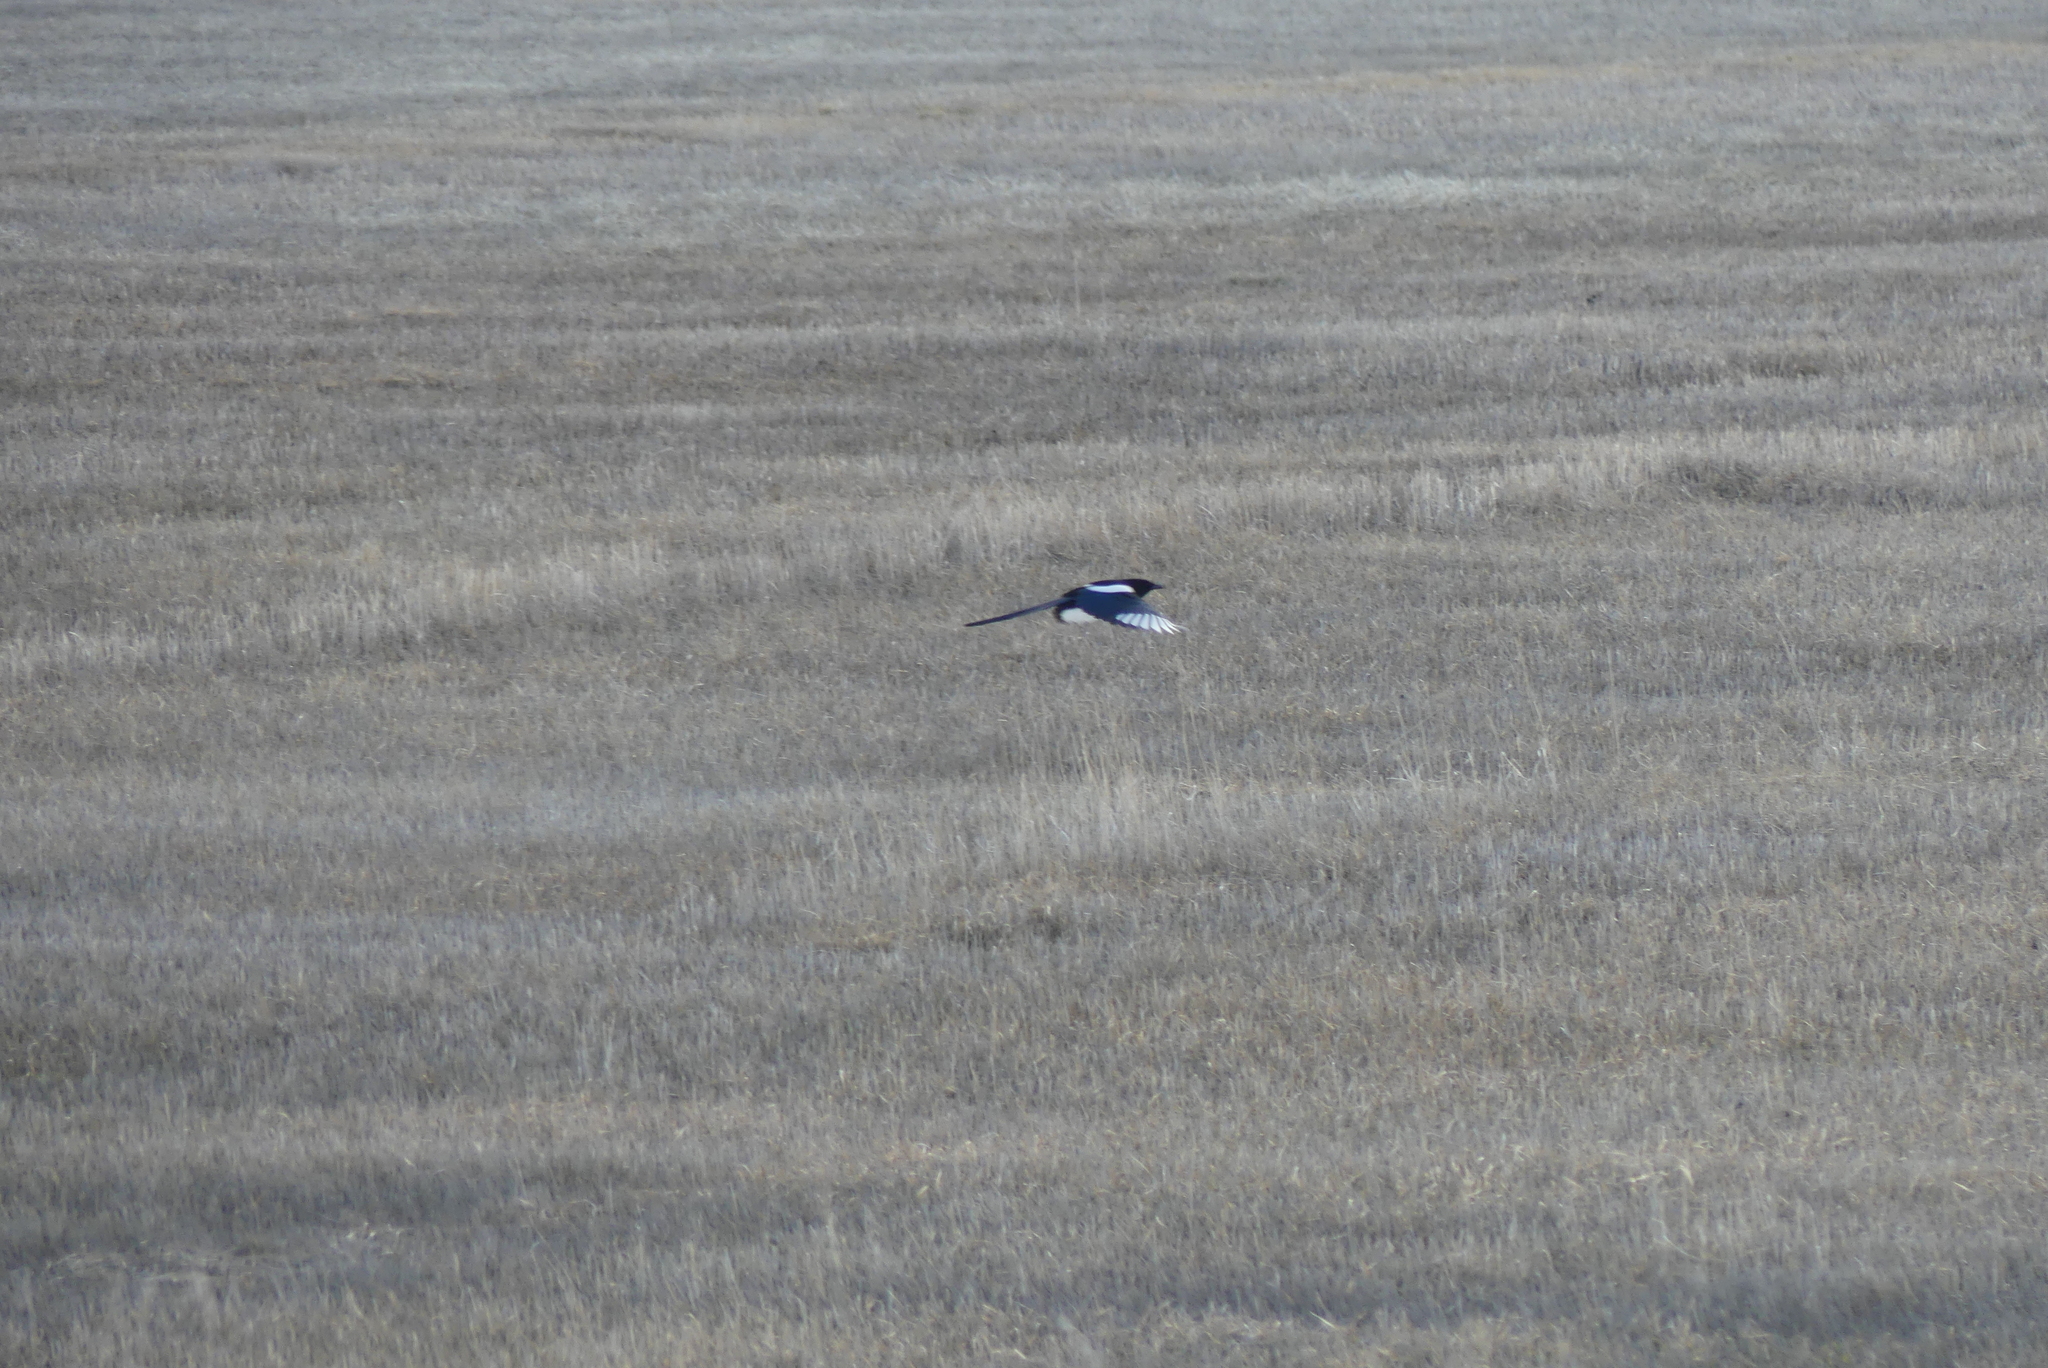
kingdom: Animalia
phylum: Chordata
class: Aves
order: Passeriformes
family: Corvidae
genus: Pica
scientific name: Pica hudsonia
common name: Black-billed magpie
